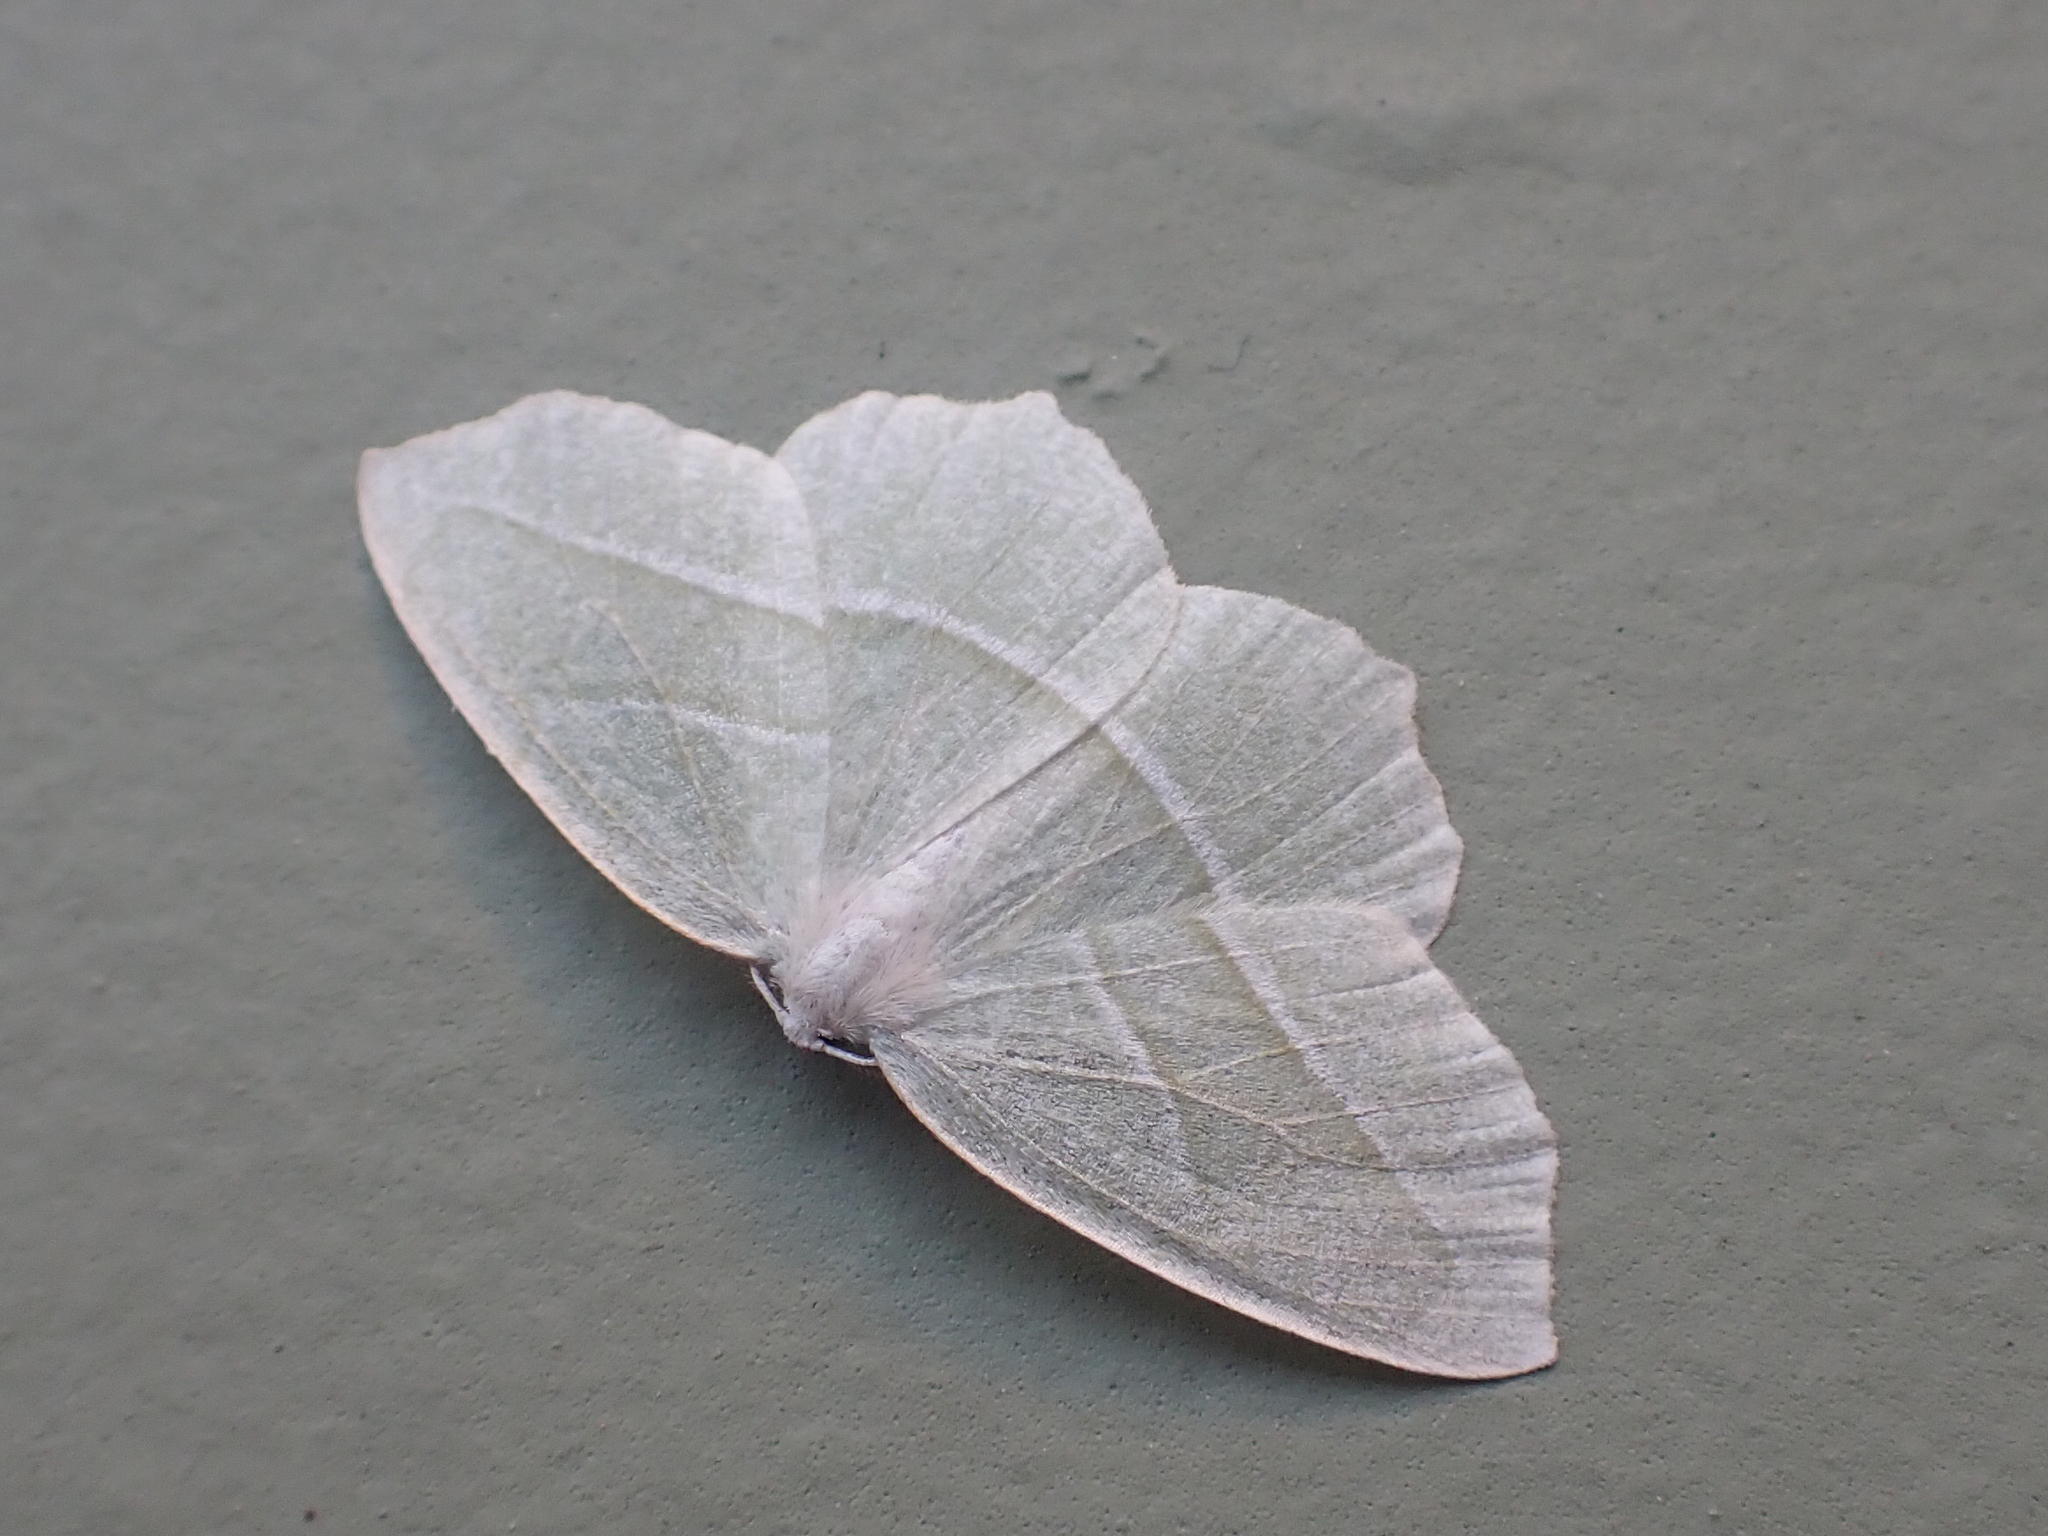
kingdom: Animalia
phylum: Arthropoda
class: Insecta
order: Lepidoptera
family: Geometridae
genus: Campaea
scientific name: Campaea perlata
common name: Fringed looper
